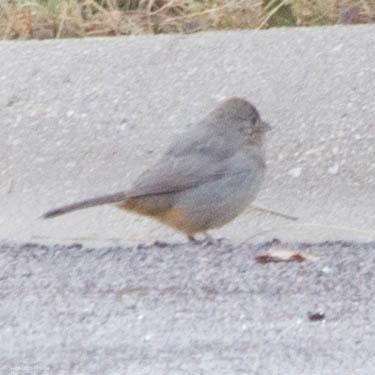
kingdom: Animalia
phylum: Chordata
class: Aves
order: Passeriformes
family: Passerellidae
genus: Melozone
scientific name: Melozone fusca
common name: Canyon towhee
